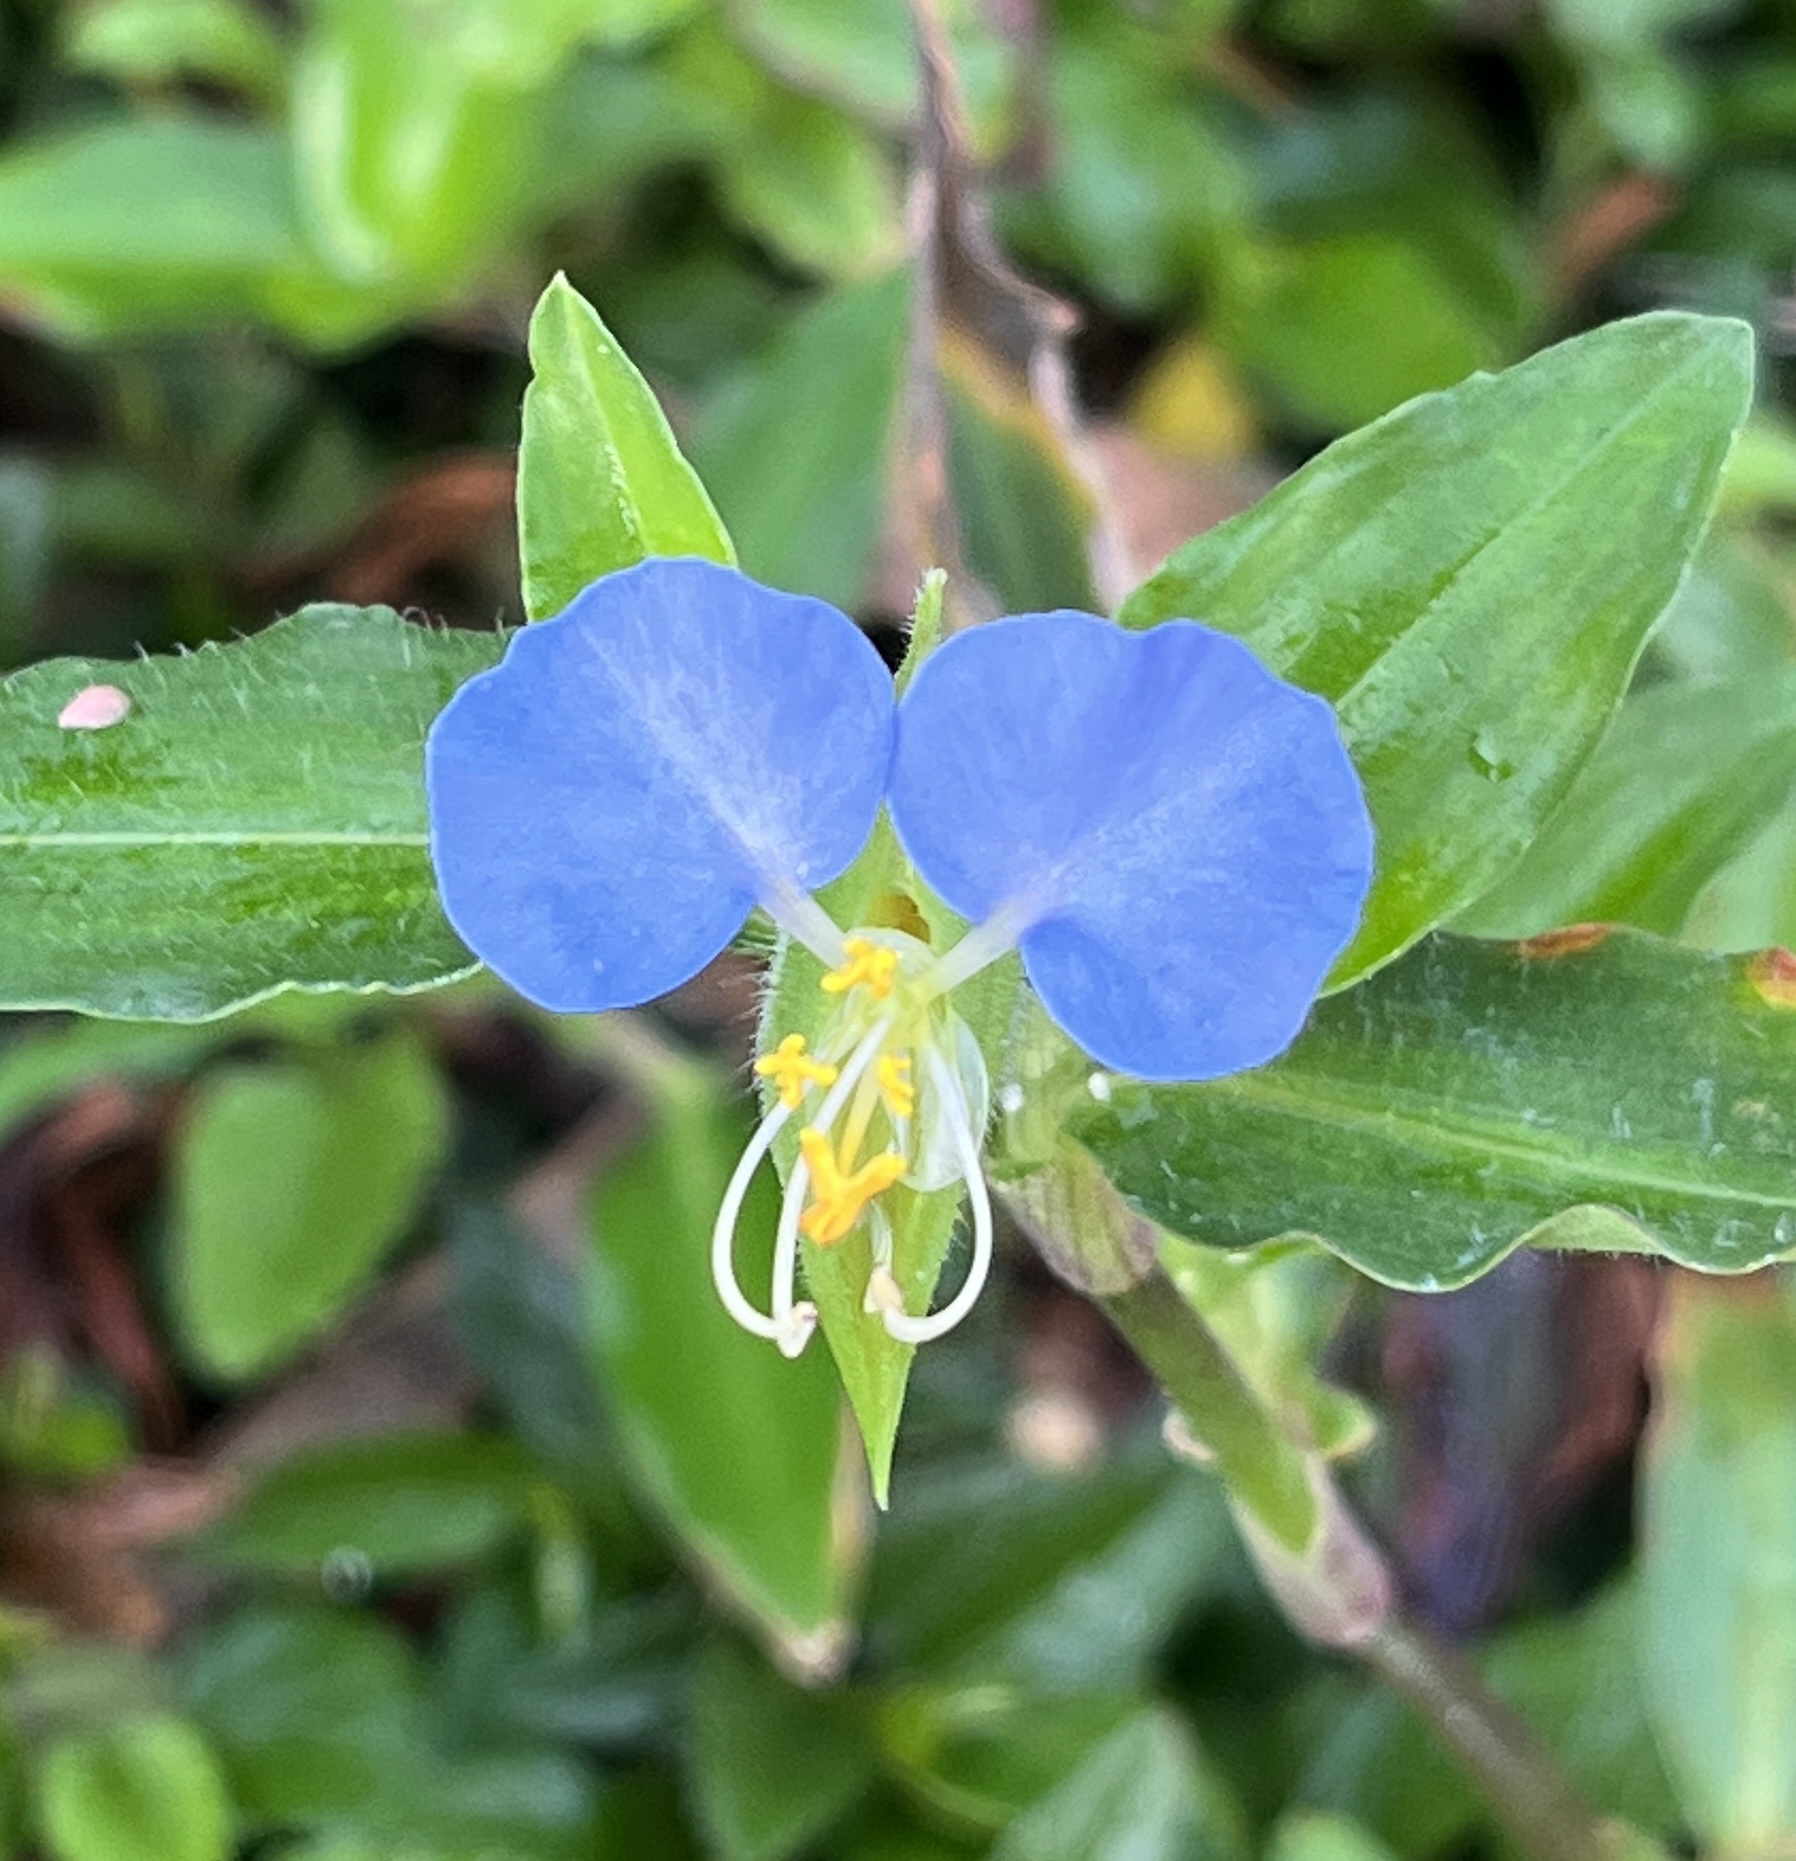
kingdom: Plantae
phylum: Tracheophyta
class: Liliopsida
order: Commelinales
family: Commelinaceae
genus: Commelina
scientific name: Commelina erecta
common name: Blousel blommetjie
